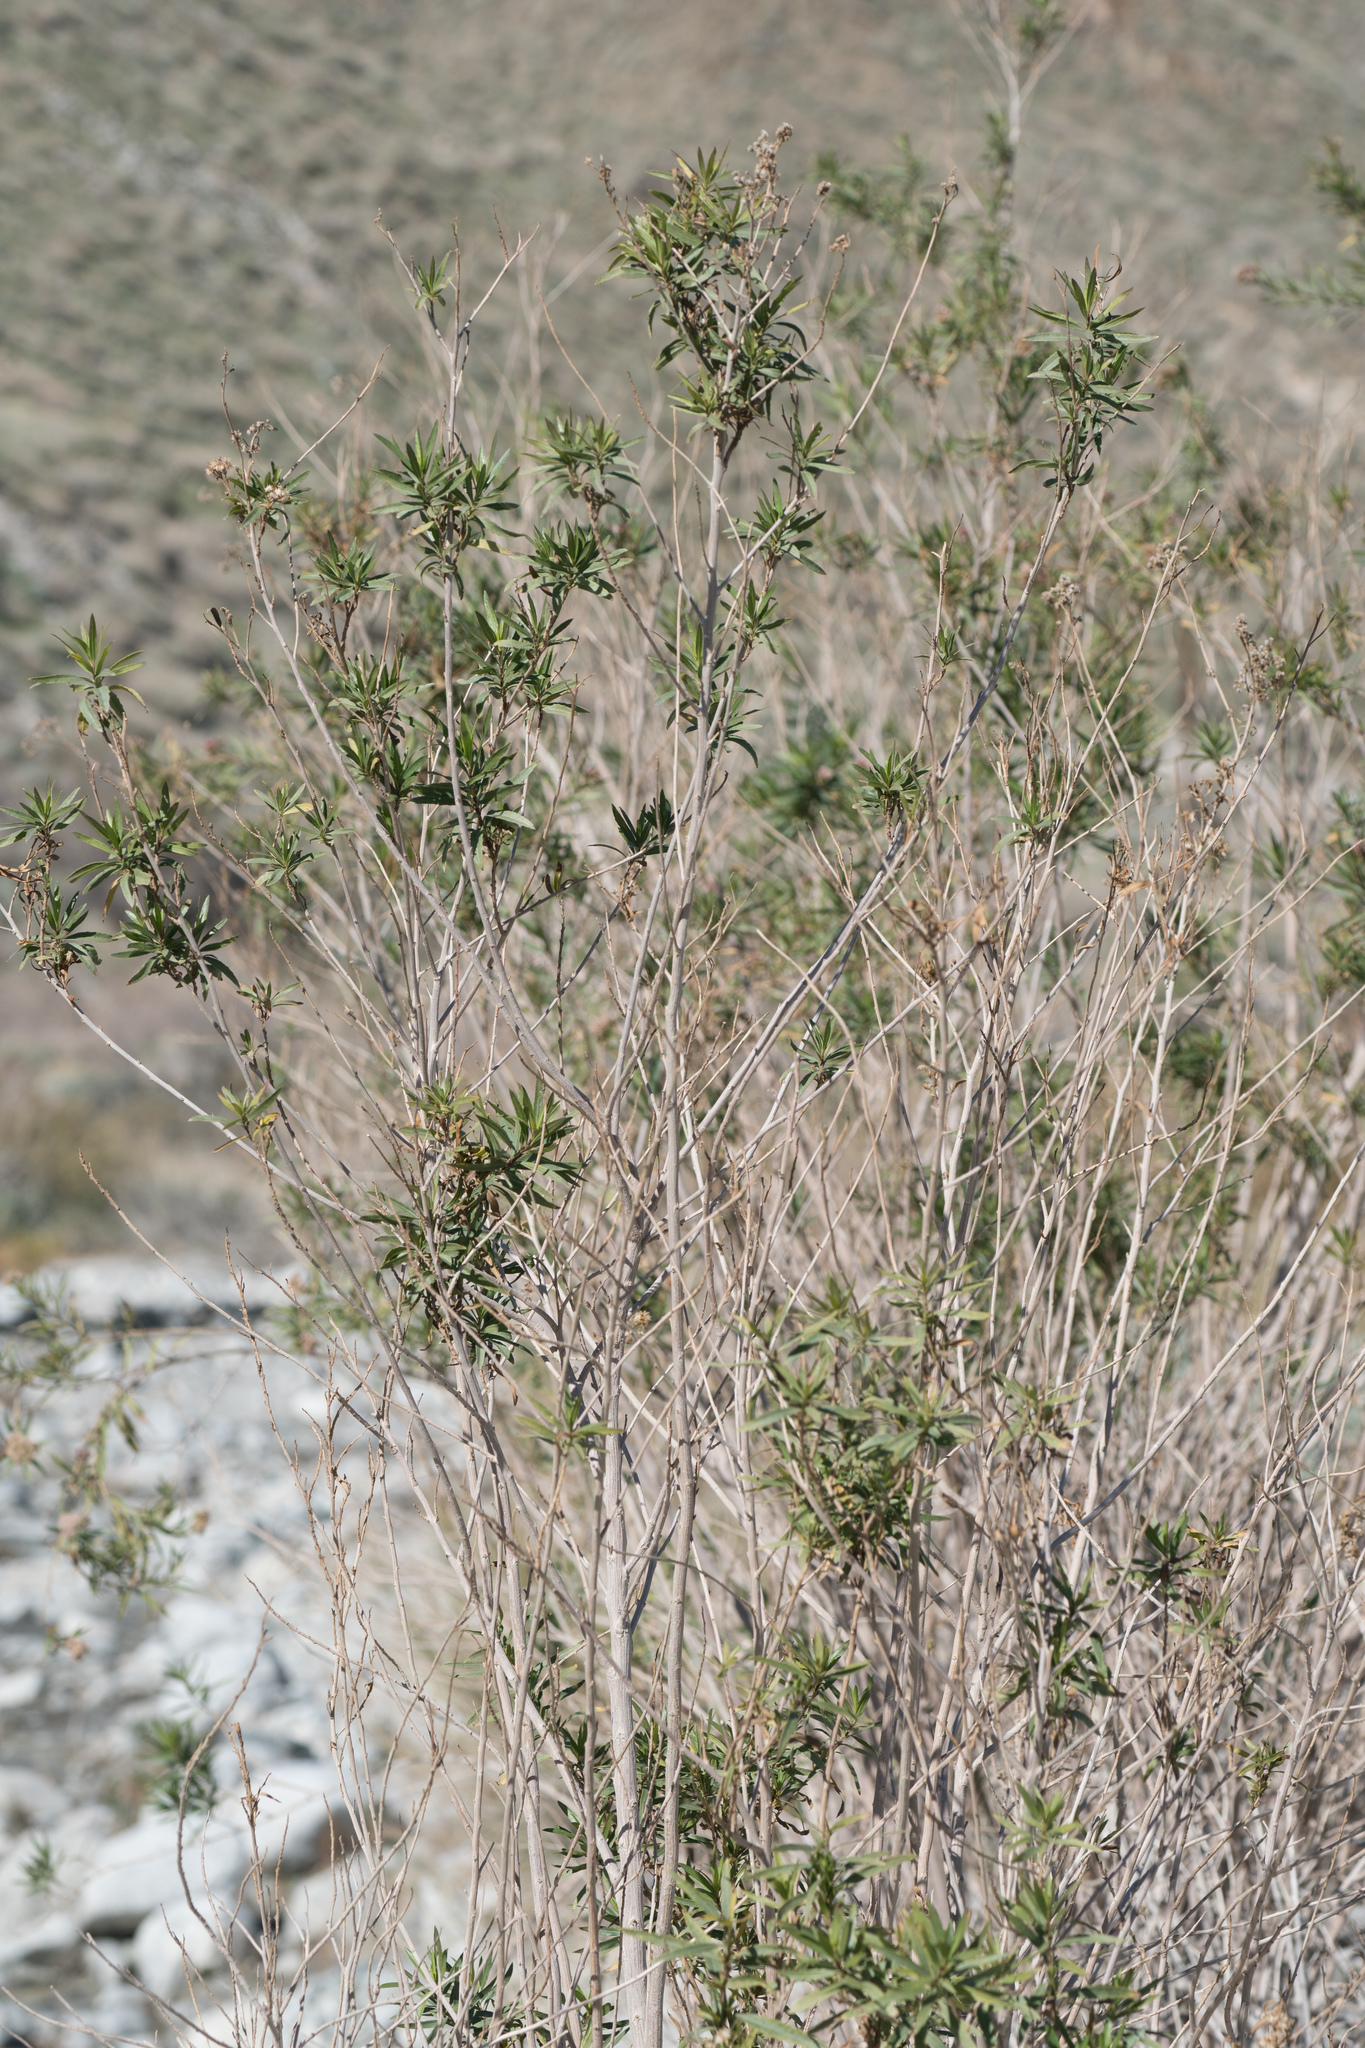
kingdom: Plantae
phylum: Tracheophyta
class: Magnoliopsida
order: Asterales
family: Asteraceae
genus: Baccharis
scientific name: Baccharis salicifolia
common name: Sticky baccharis
